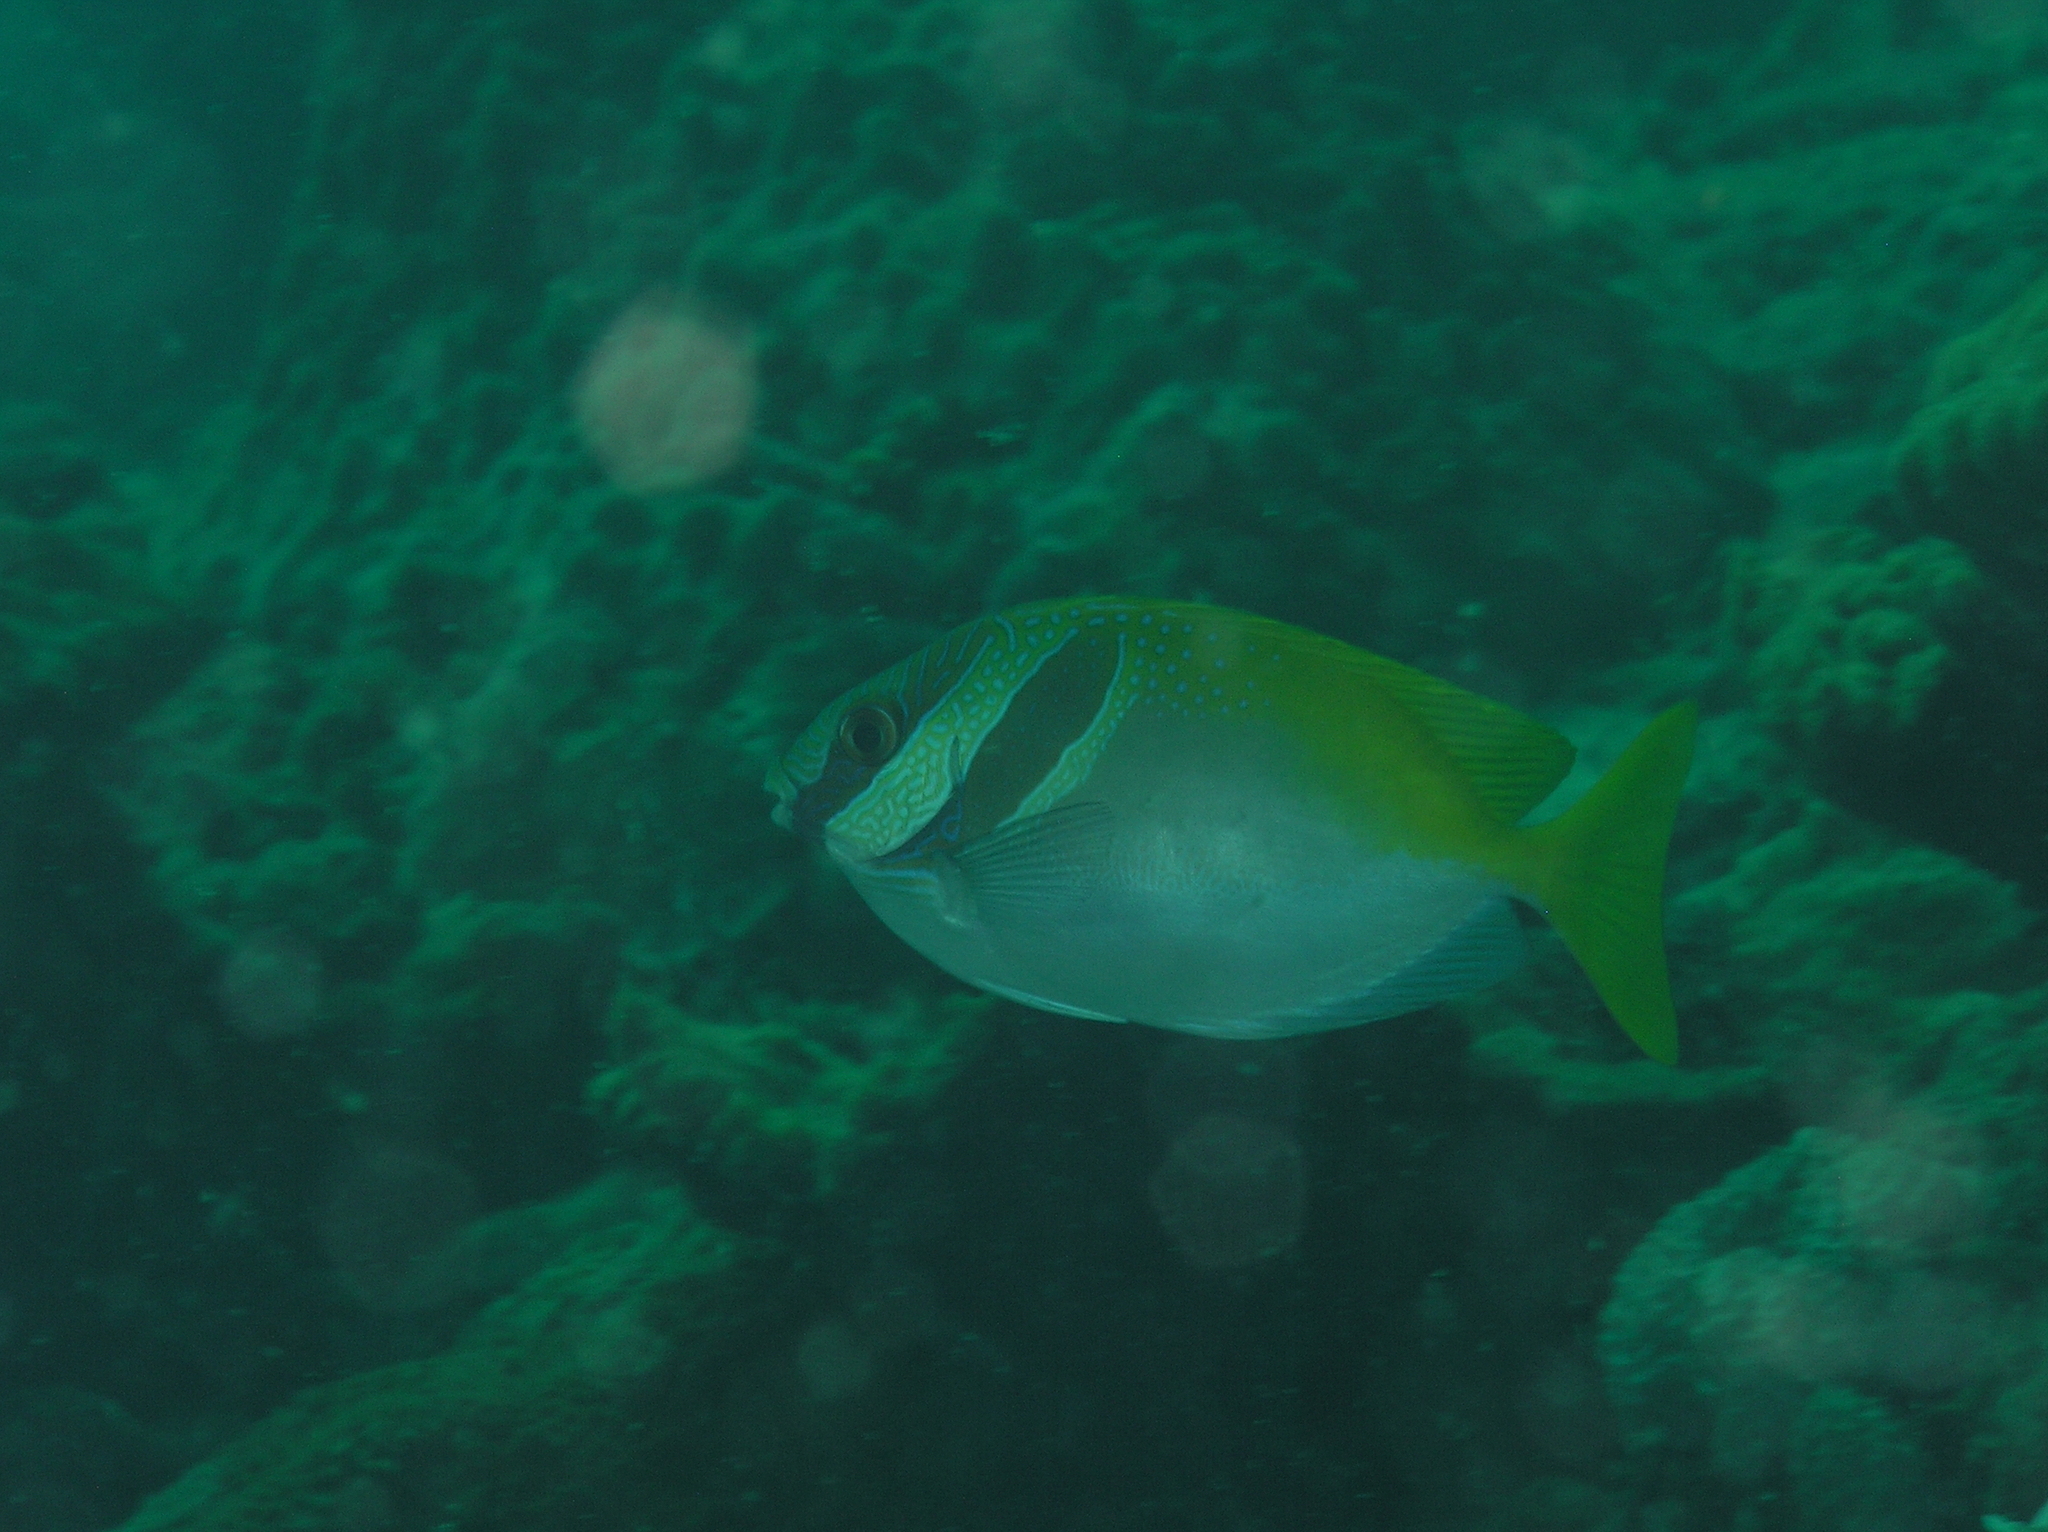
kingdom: Animalia
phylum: Chordata
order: Perciformes
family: Siganidae
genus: Siganus
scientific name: Siganus virgatus
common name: Barhead spinefoot
